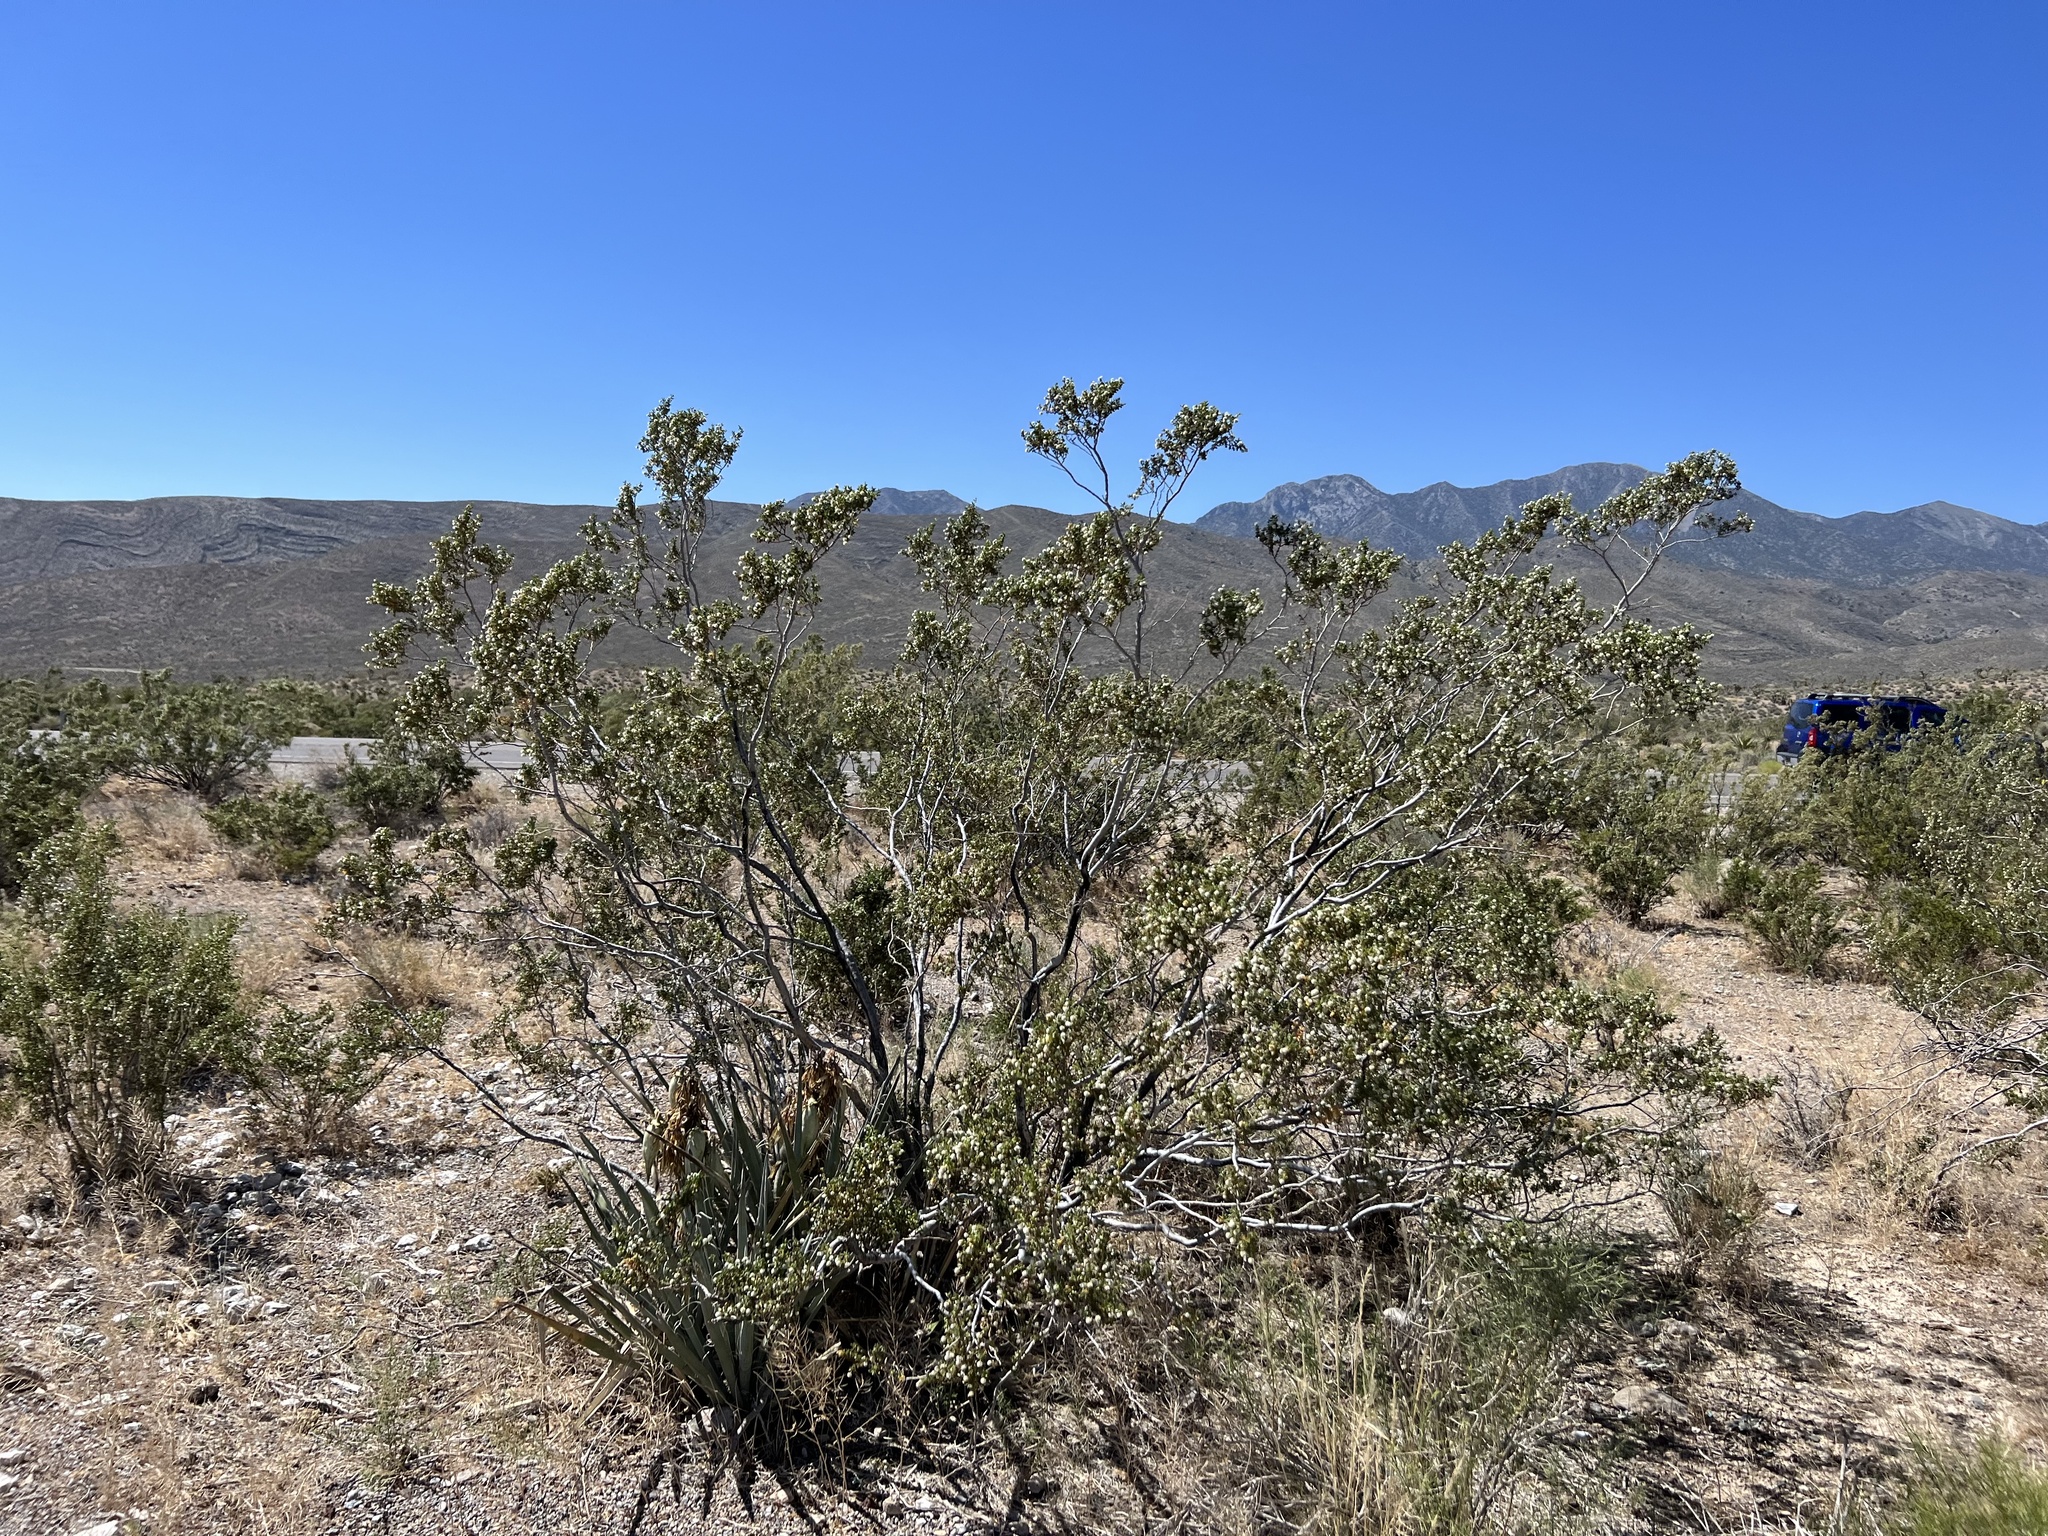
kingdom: Plantae
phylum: Tracheophyta
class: Magnoliopsida
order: Zygophyllales
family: Zygophyllaceae
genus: Larrea
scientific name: Larrea tridentata
